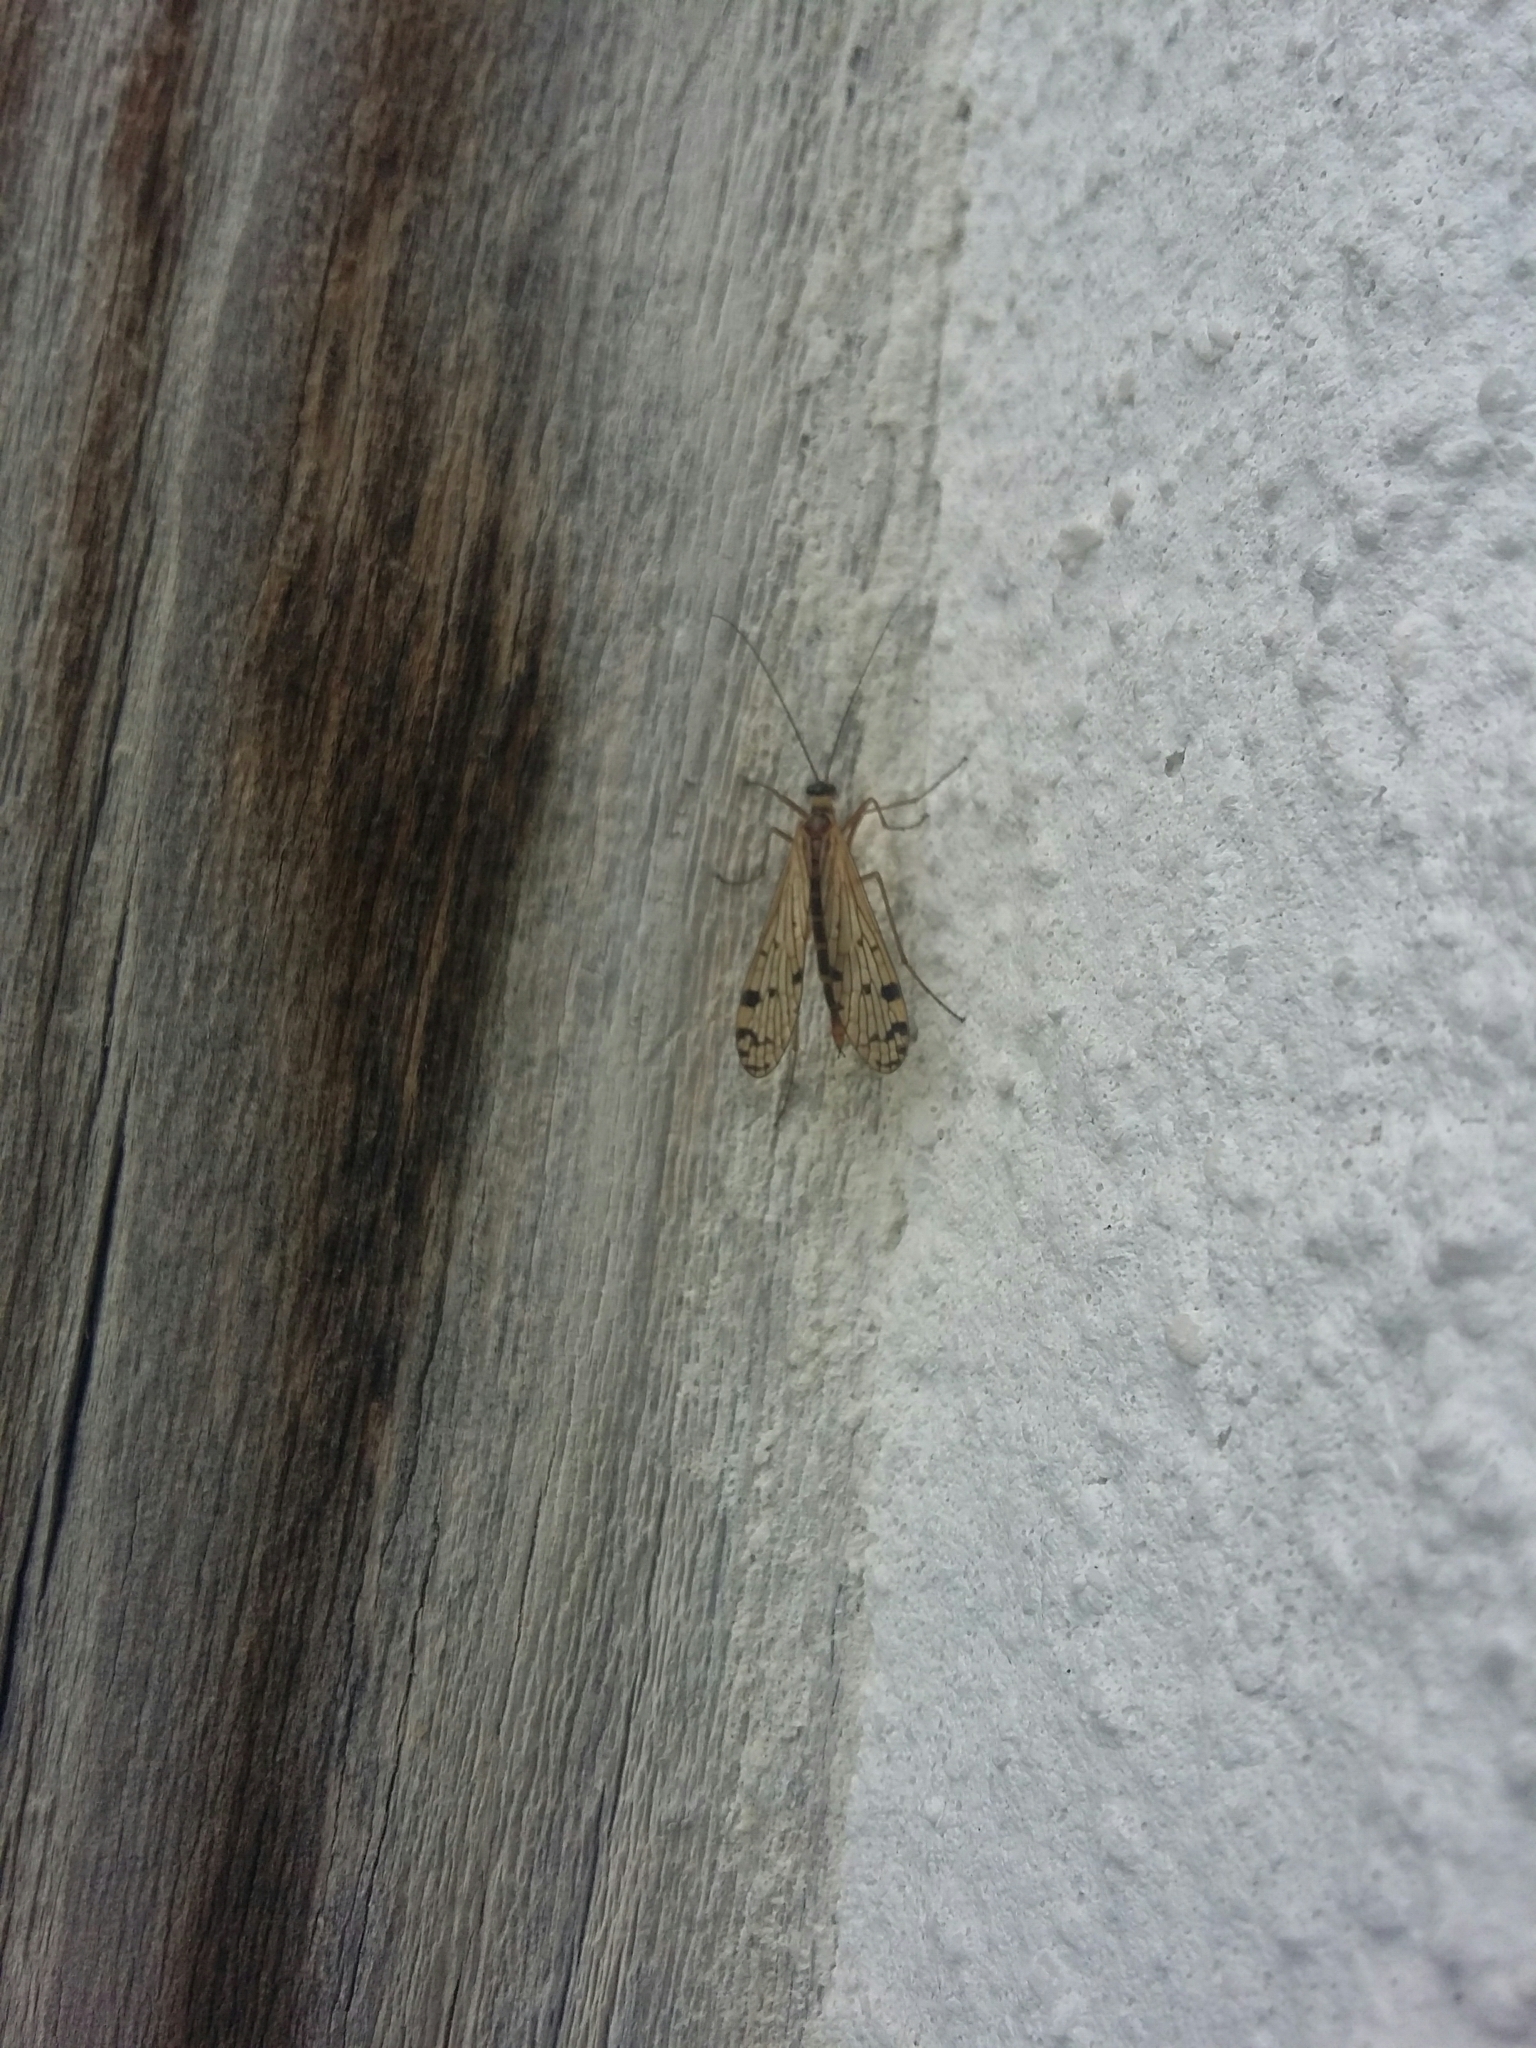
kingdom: Animalia
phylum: Arthropoda
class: Insecta
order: Mecoptera
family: Panorpidae
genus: Panorpa
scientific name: Panorpa germanica
